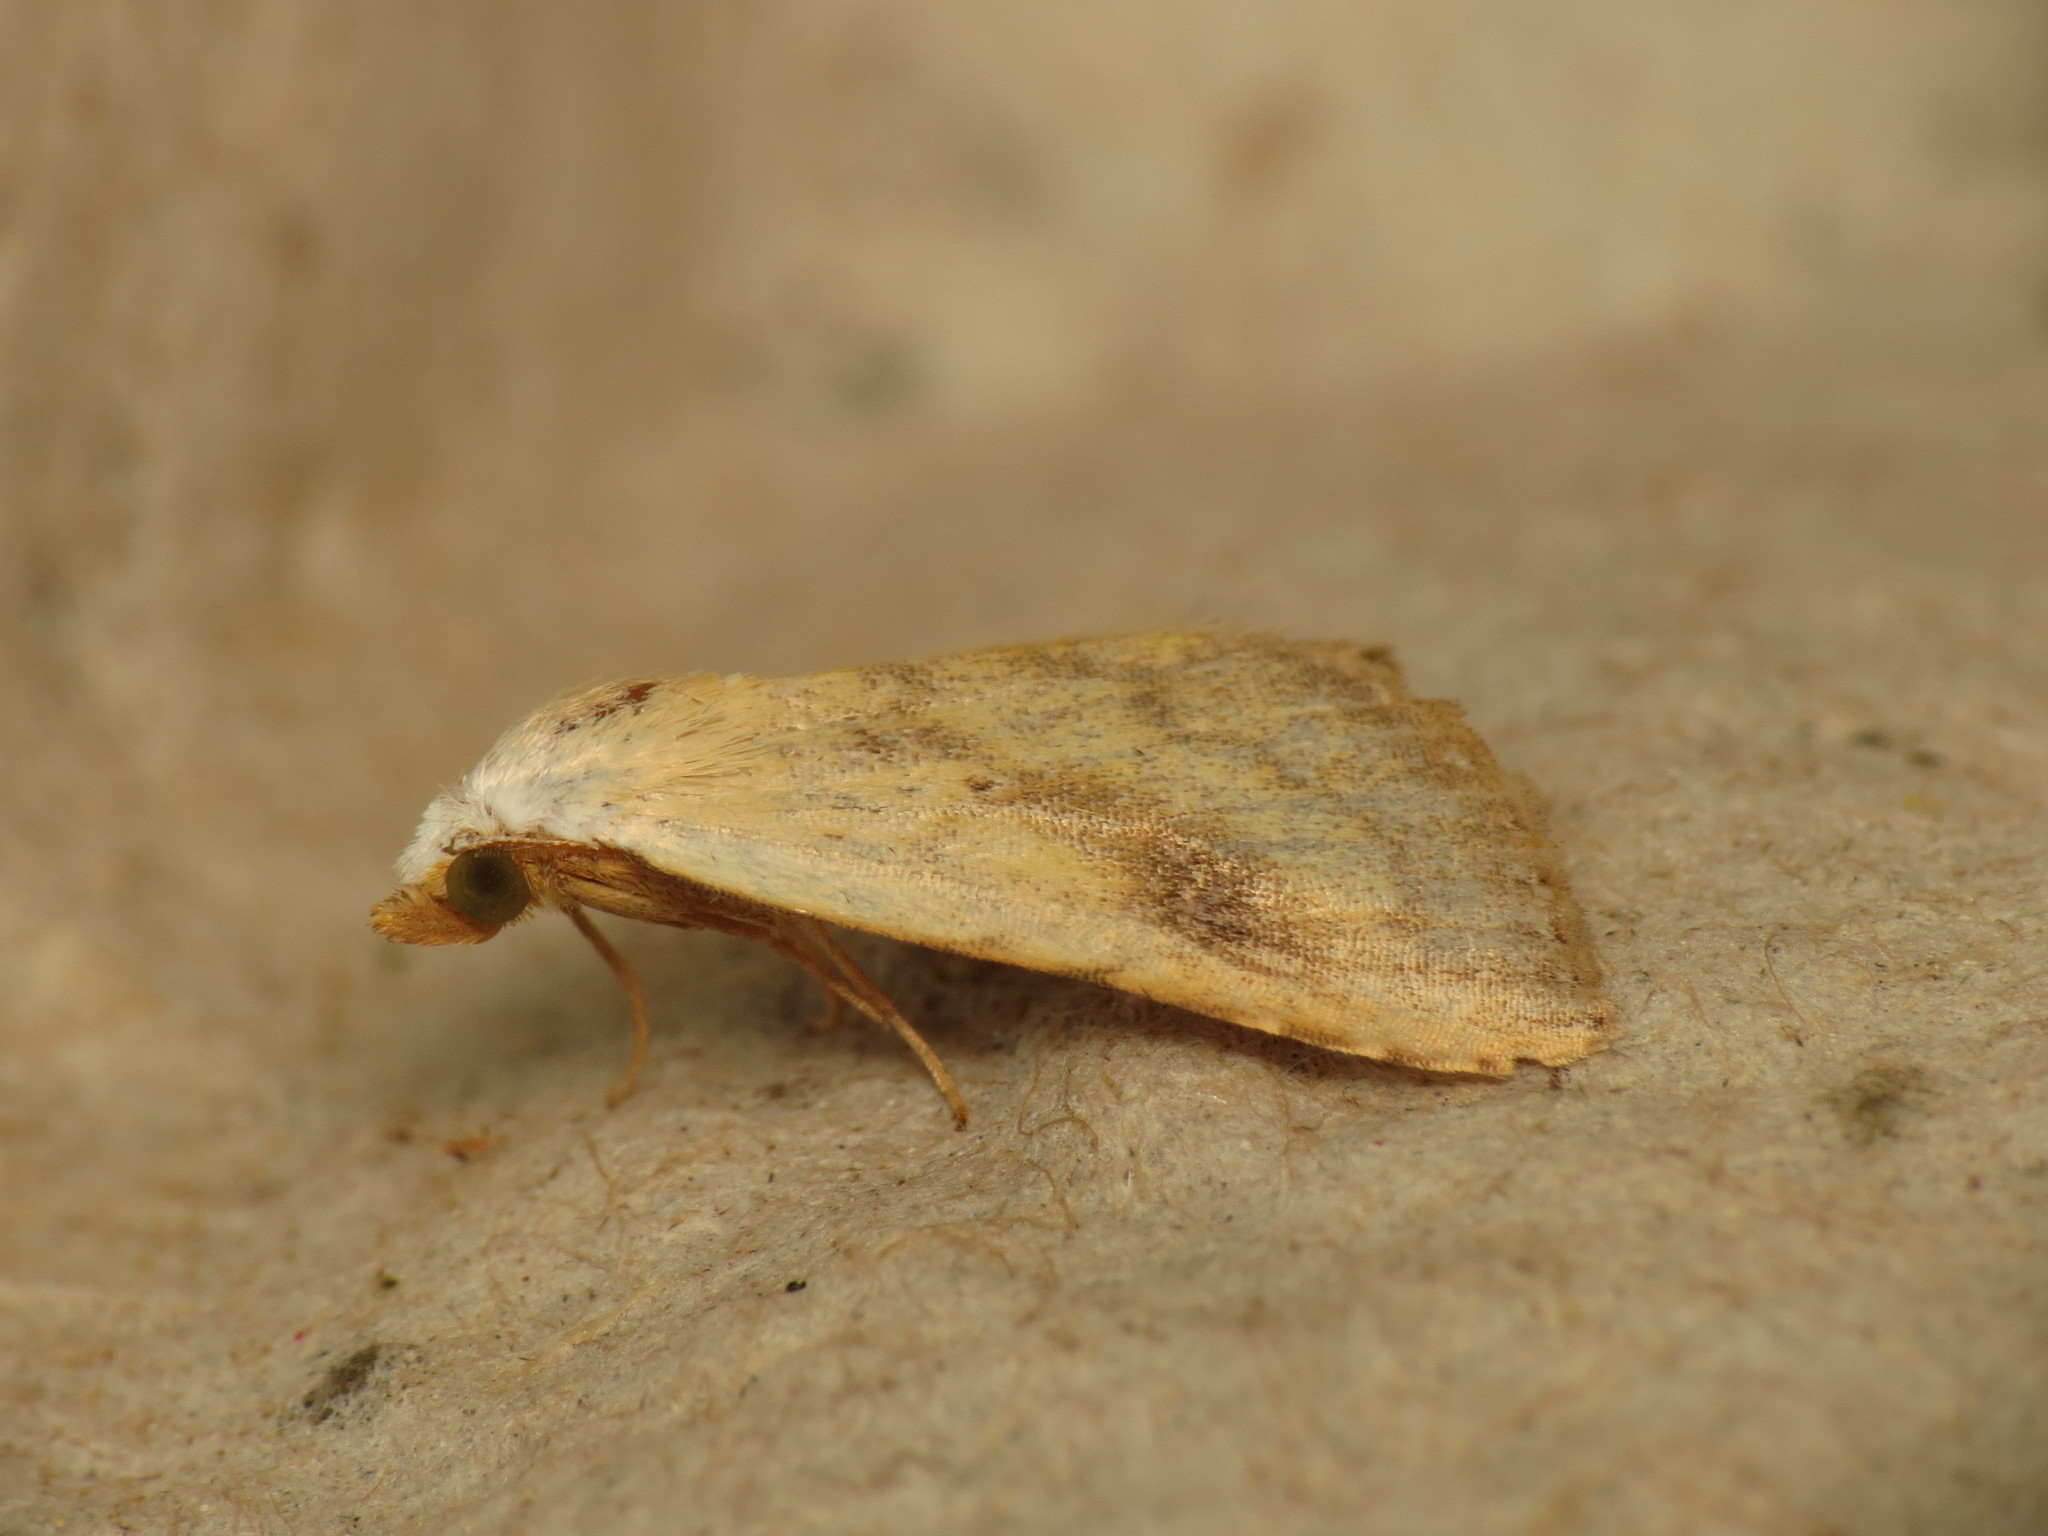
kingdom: Animalia
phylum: Arthropoda
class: Insecta
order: Lepidoptera
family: Erebidae
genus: Rivula
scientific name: Rivula sericealis
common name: Straw dot
